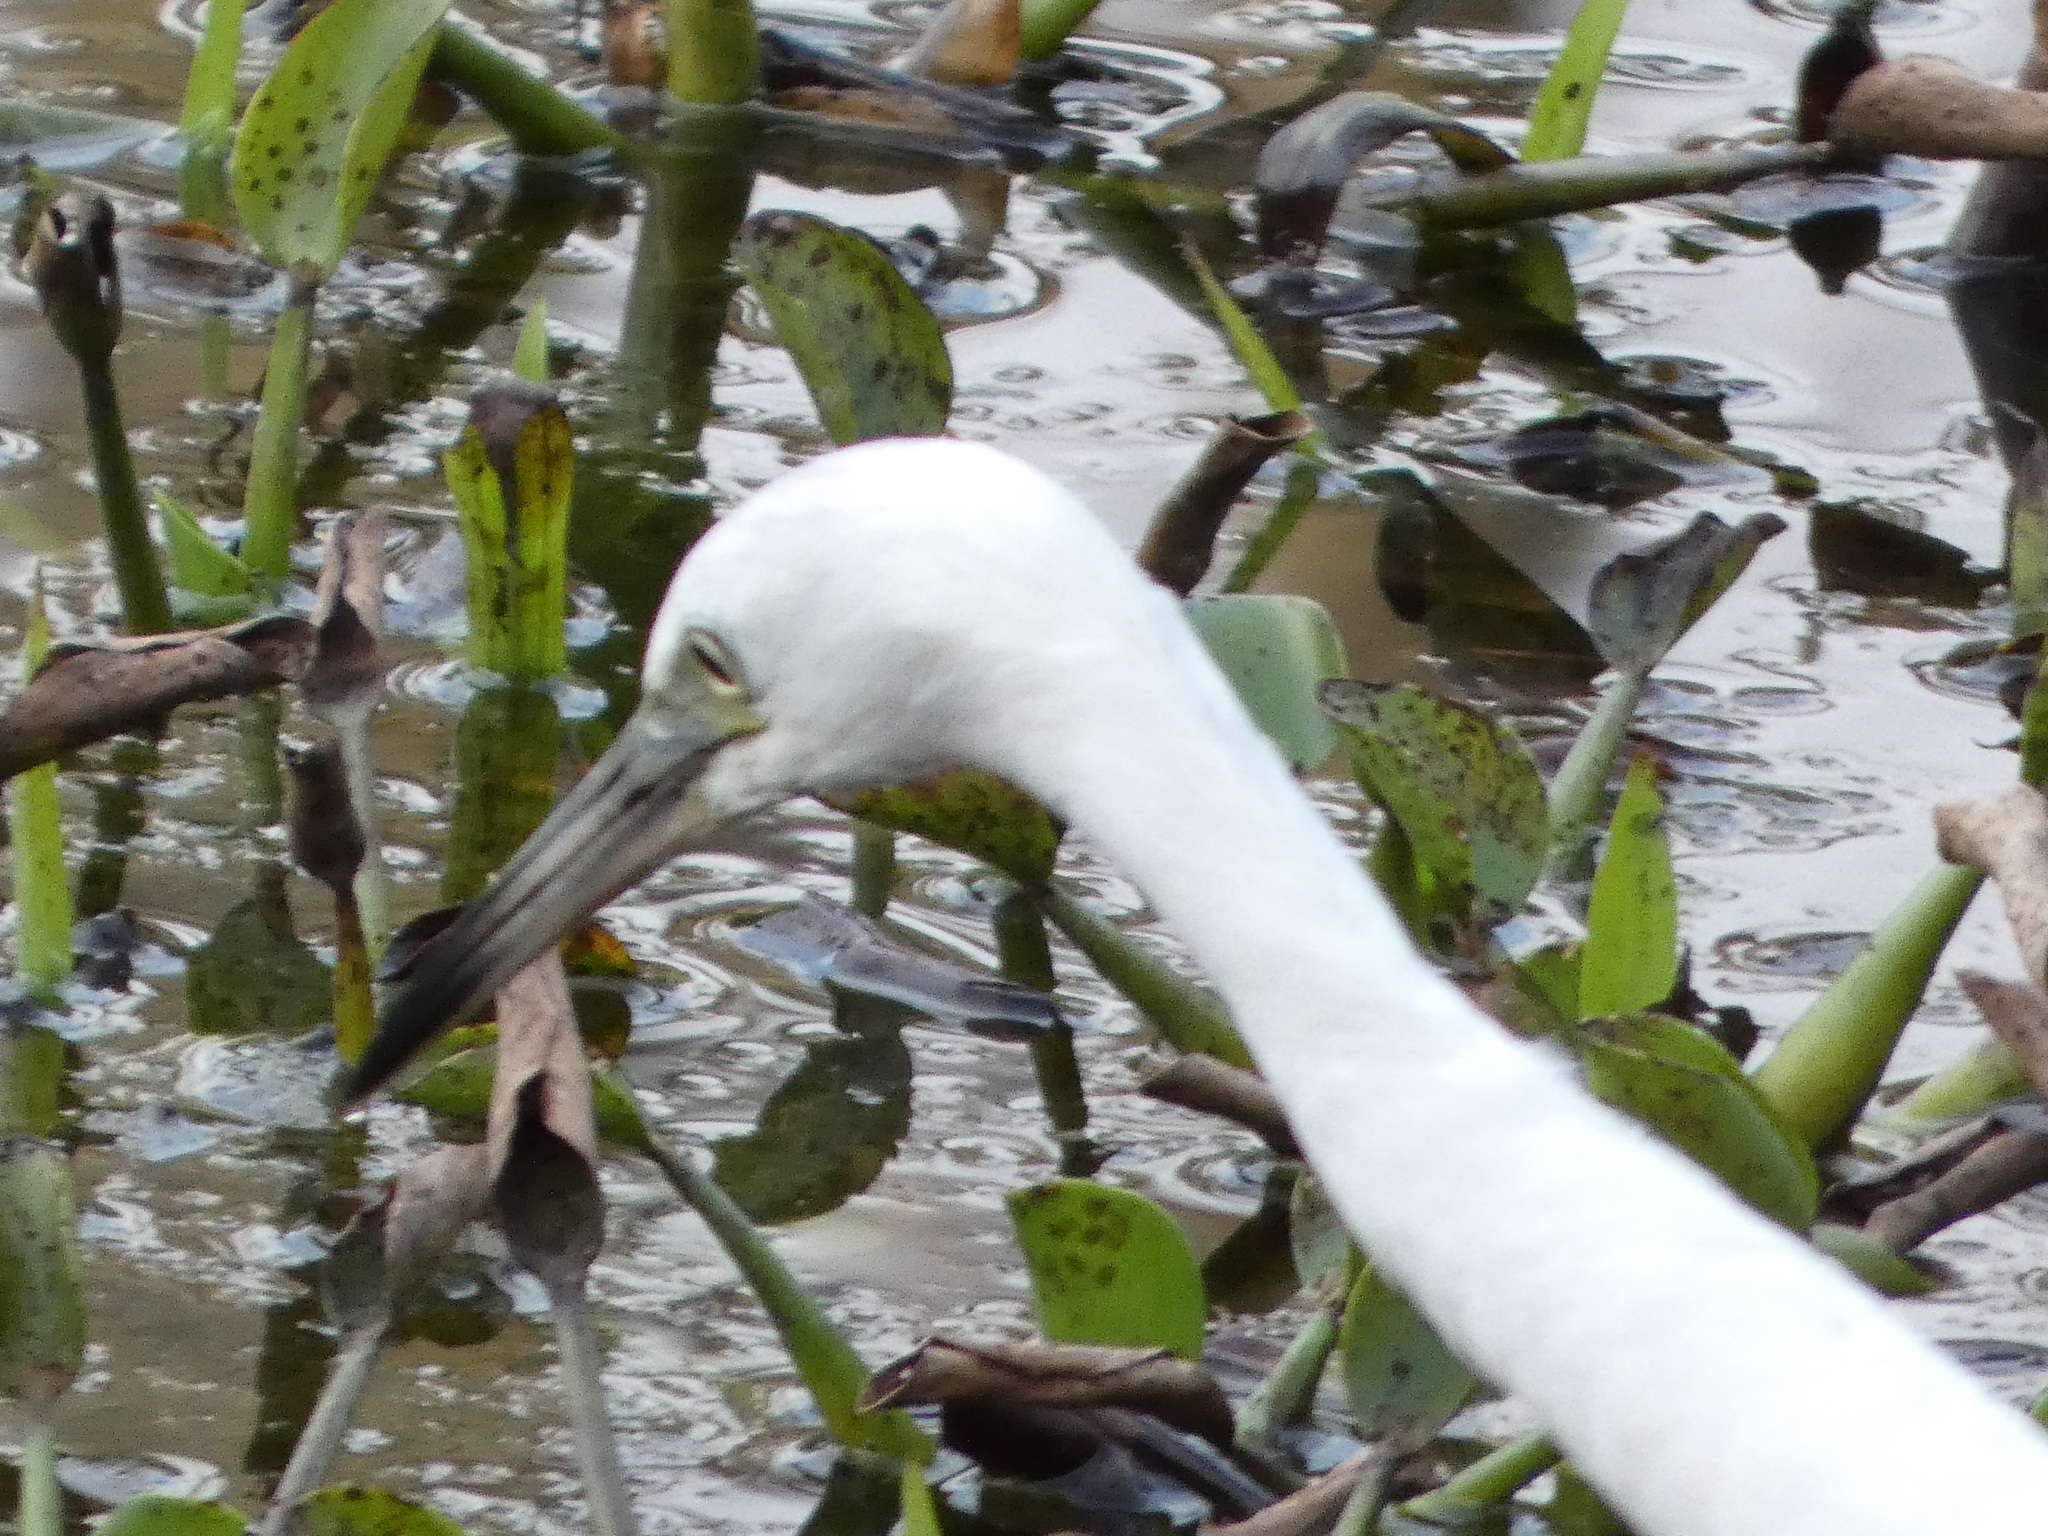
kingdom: Animalia
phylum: Chordata
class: Aves
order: Pelecaniformes
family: Ardeidae
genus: Egretta
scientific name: Egretta caerulea
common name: Little blue heron
